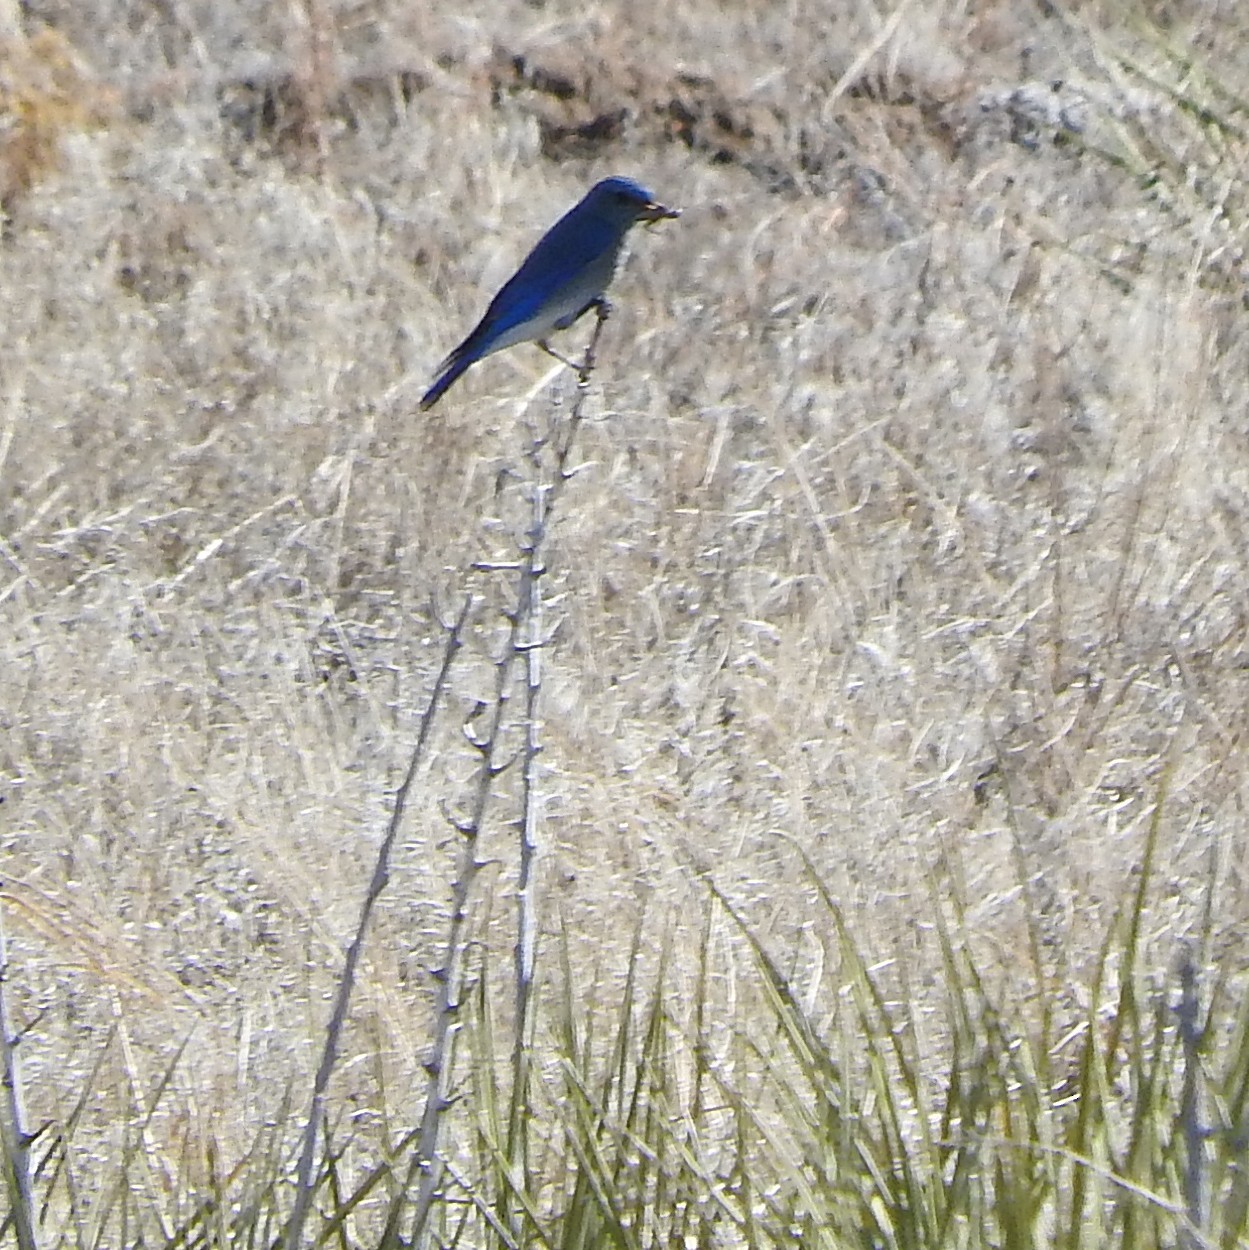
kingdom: Animalia
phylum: Chordata
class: Aves
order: Passeriformes
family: Turdidae
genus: Sialia
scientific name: Sialia currucoides
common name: Mountain bluebird
